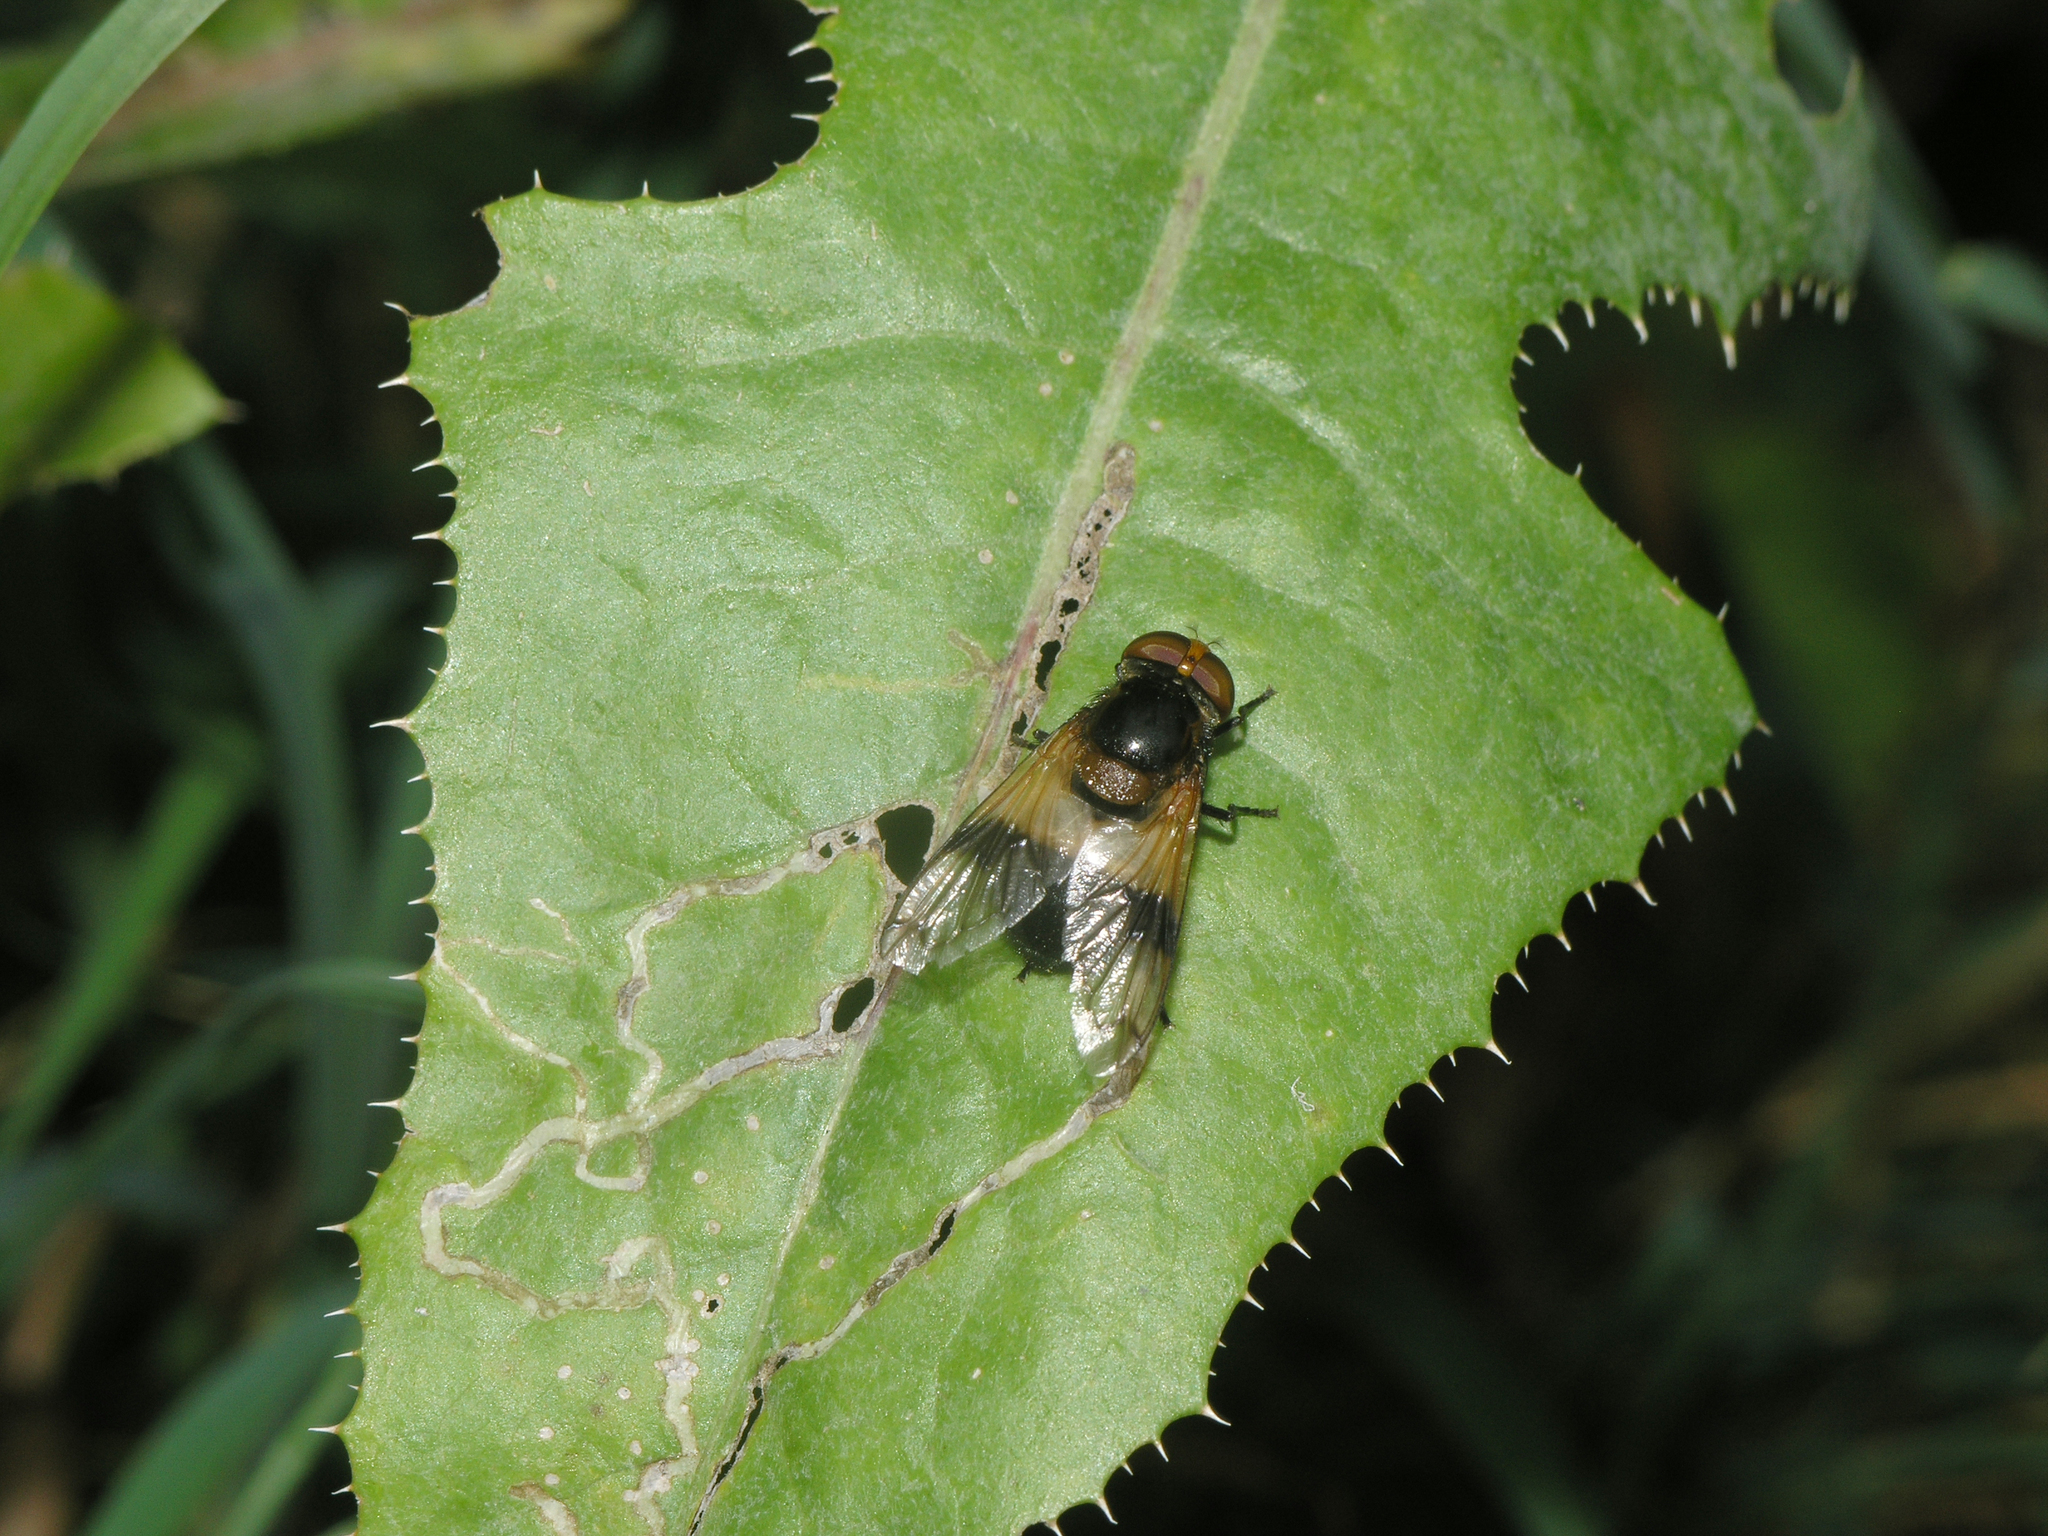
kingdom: Animalia
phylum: Arthropoda
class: Insecta
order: Diptera
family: Syrphidae
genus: Volucella
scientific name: Volucella pellucens
